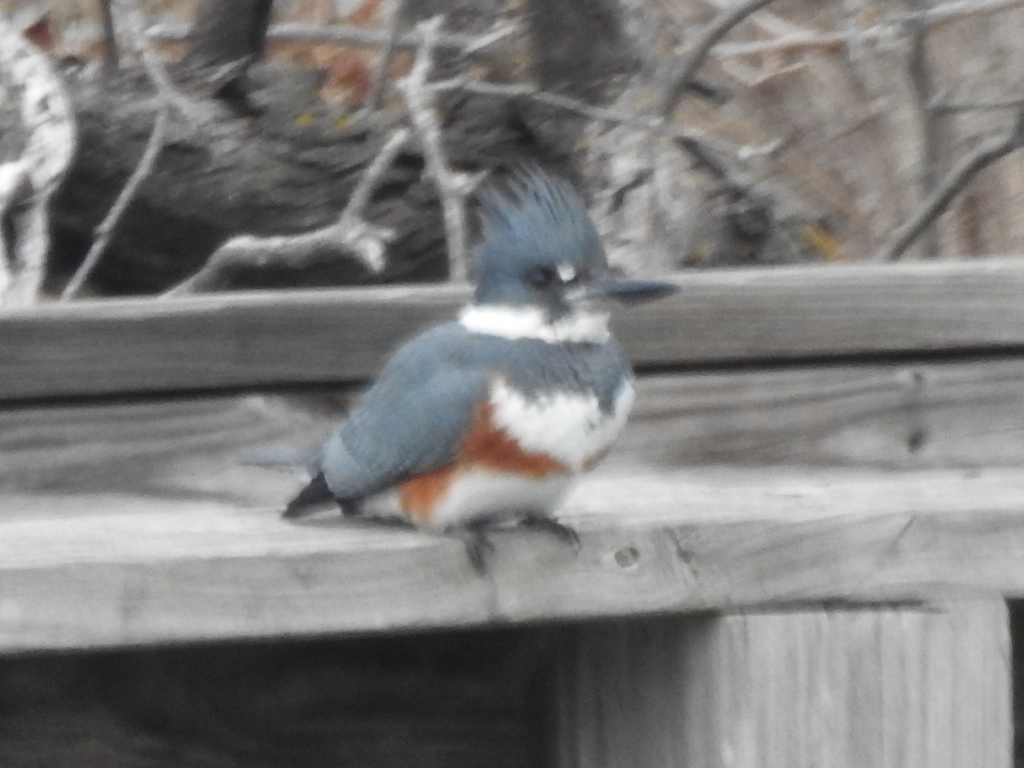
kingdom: Animalia
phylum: Chordata
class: Aves
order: Coraciiformes
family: Alcedinidae
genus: Megaceryle
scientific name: Megaceryle alcyon
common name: Belted kingfisher
